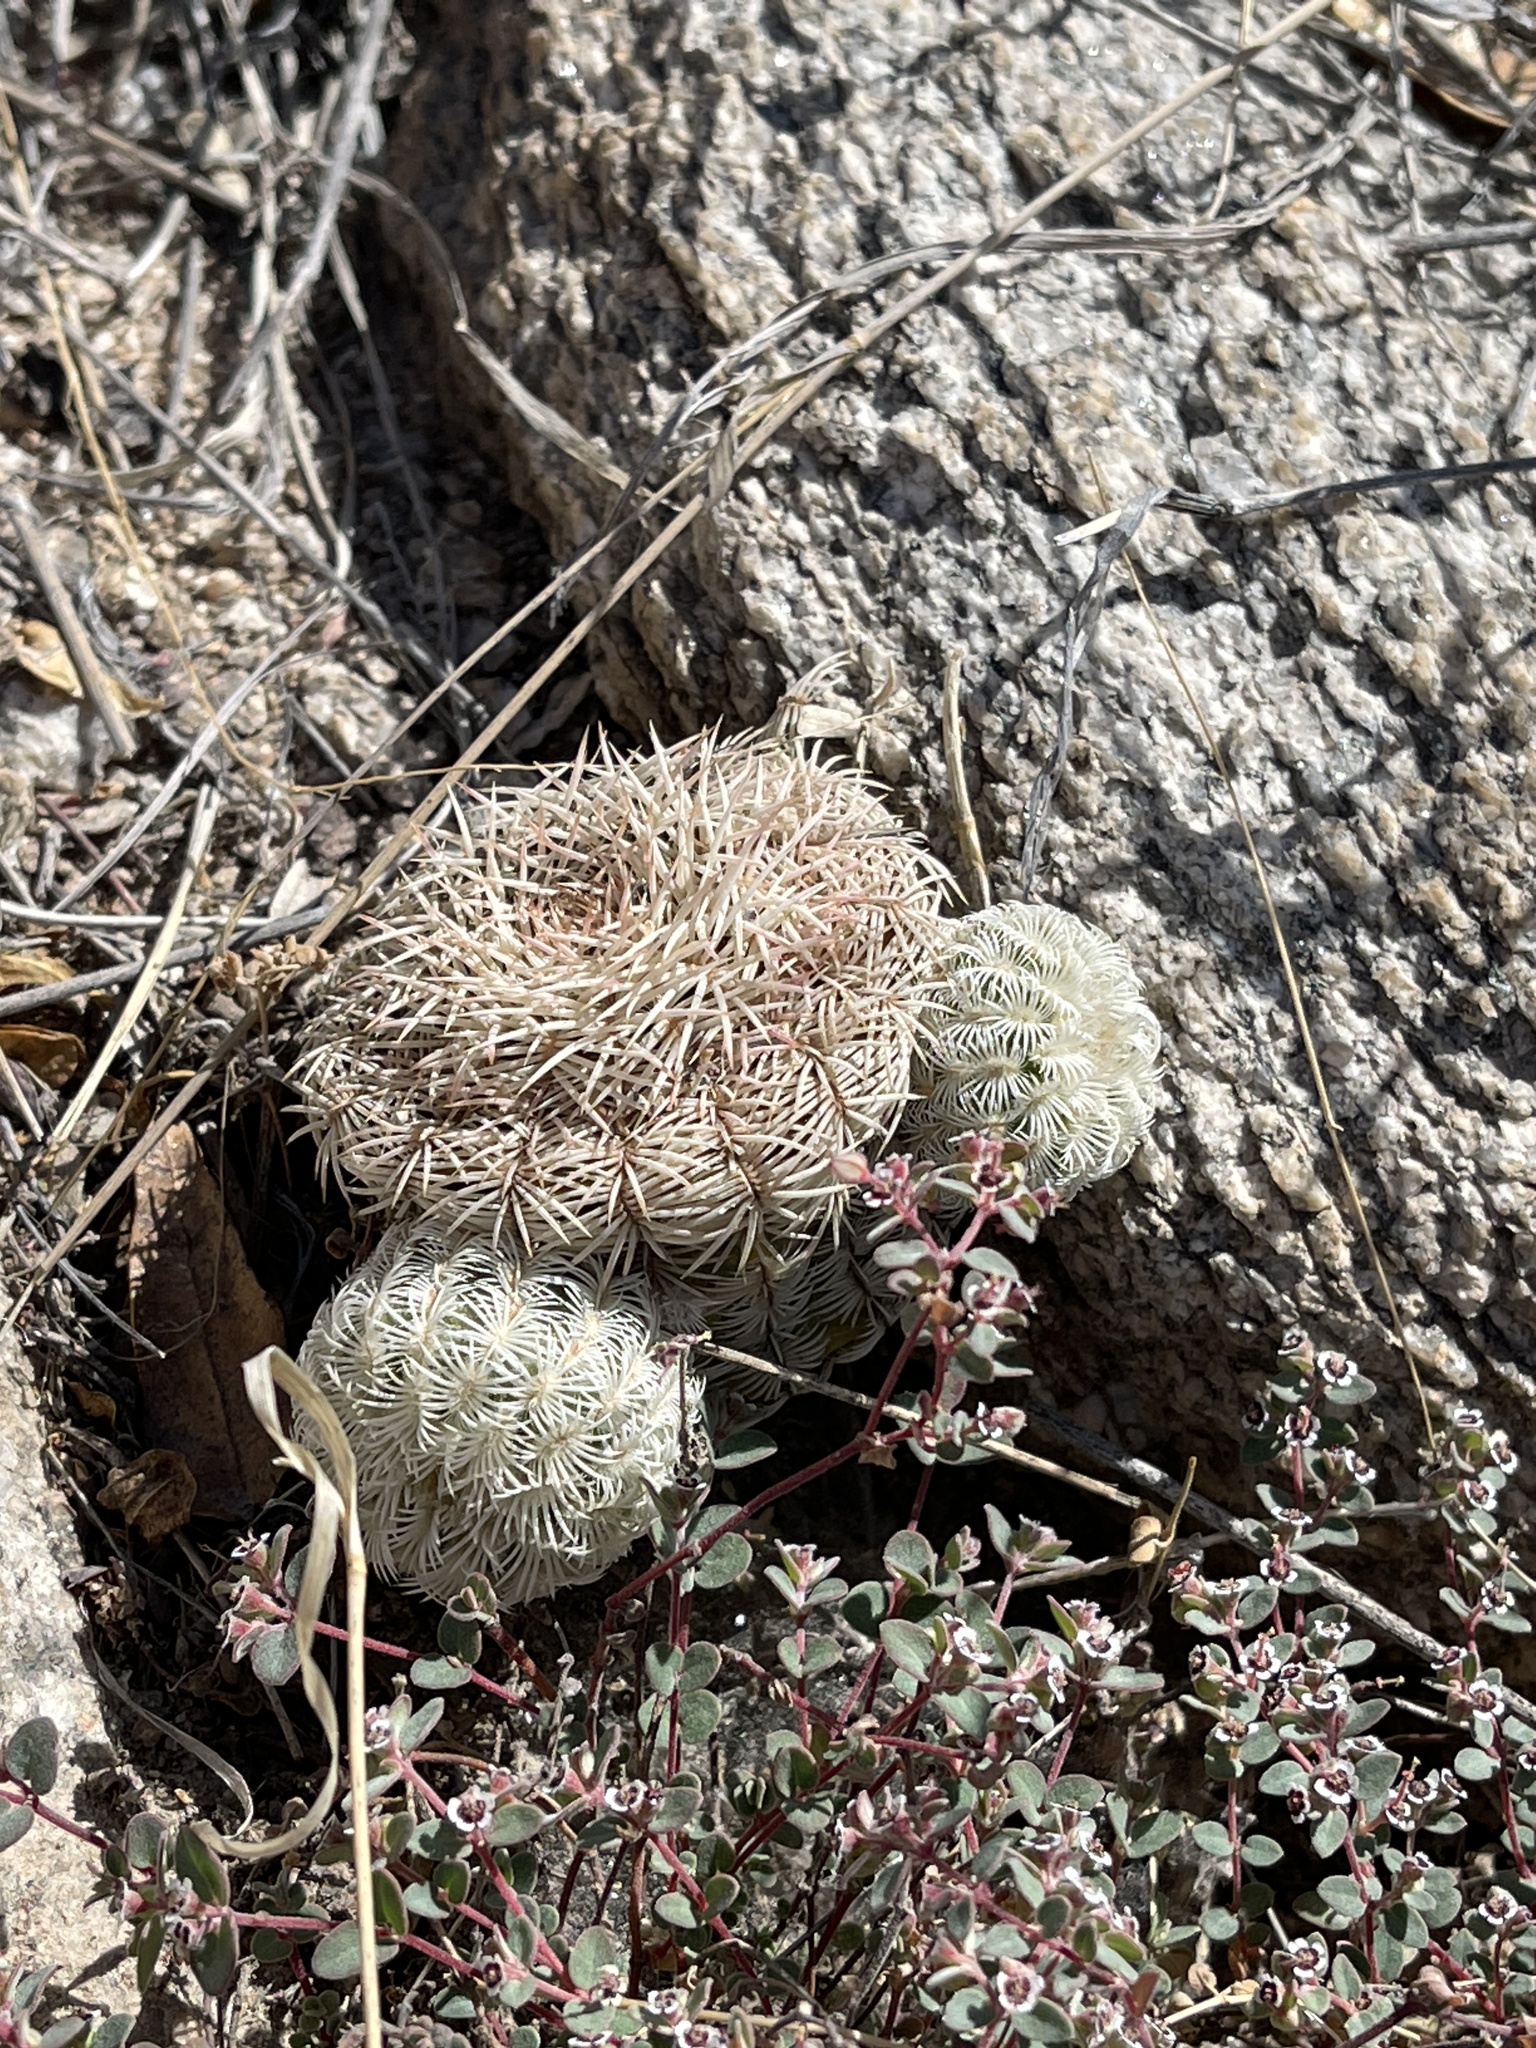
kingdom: Plantae
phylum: Tracheophyta
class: Magnoliopsida
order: Caryophyllales
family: Cactaceae
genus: Echinocereus
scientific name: Echinocereus rigidissimus
